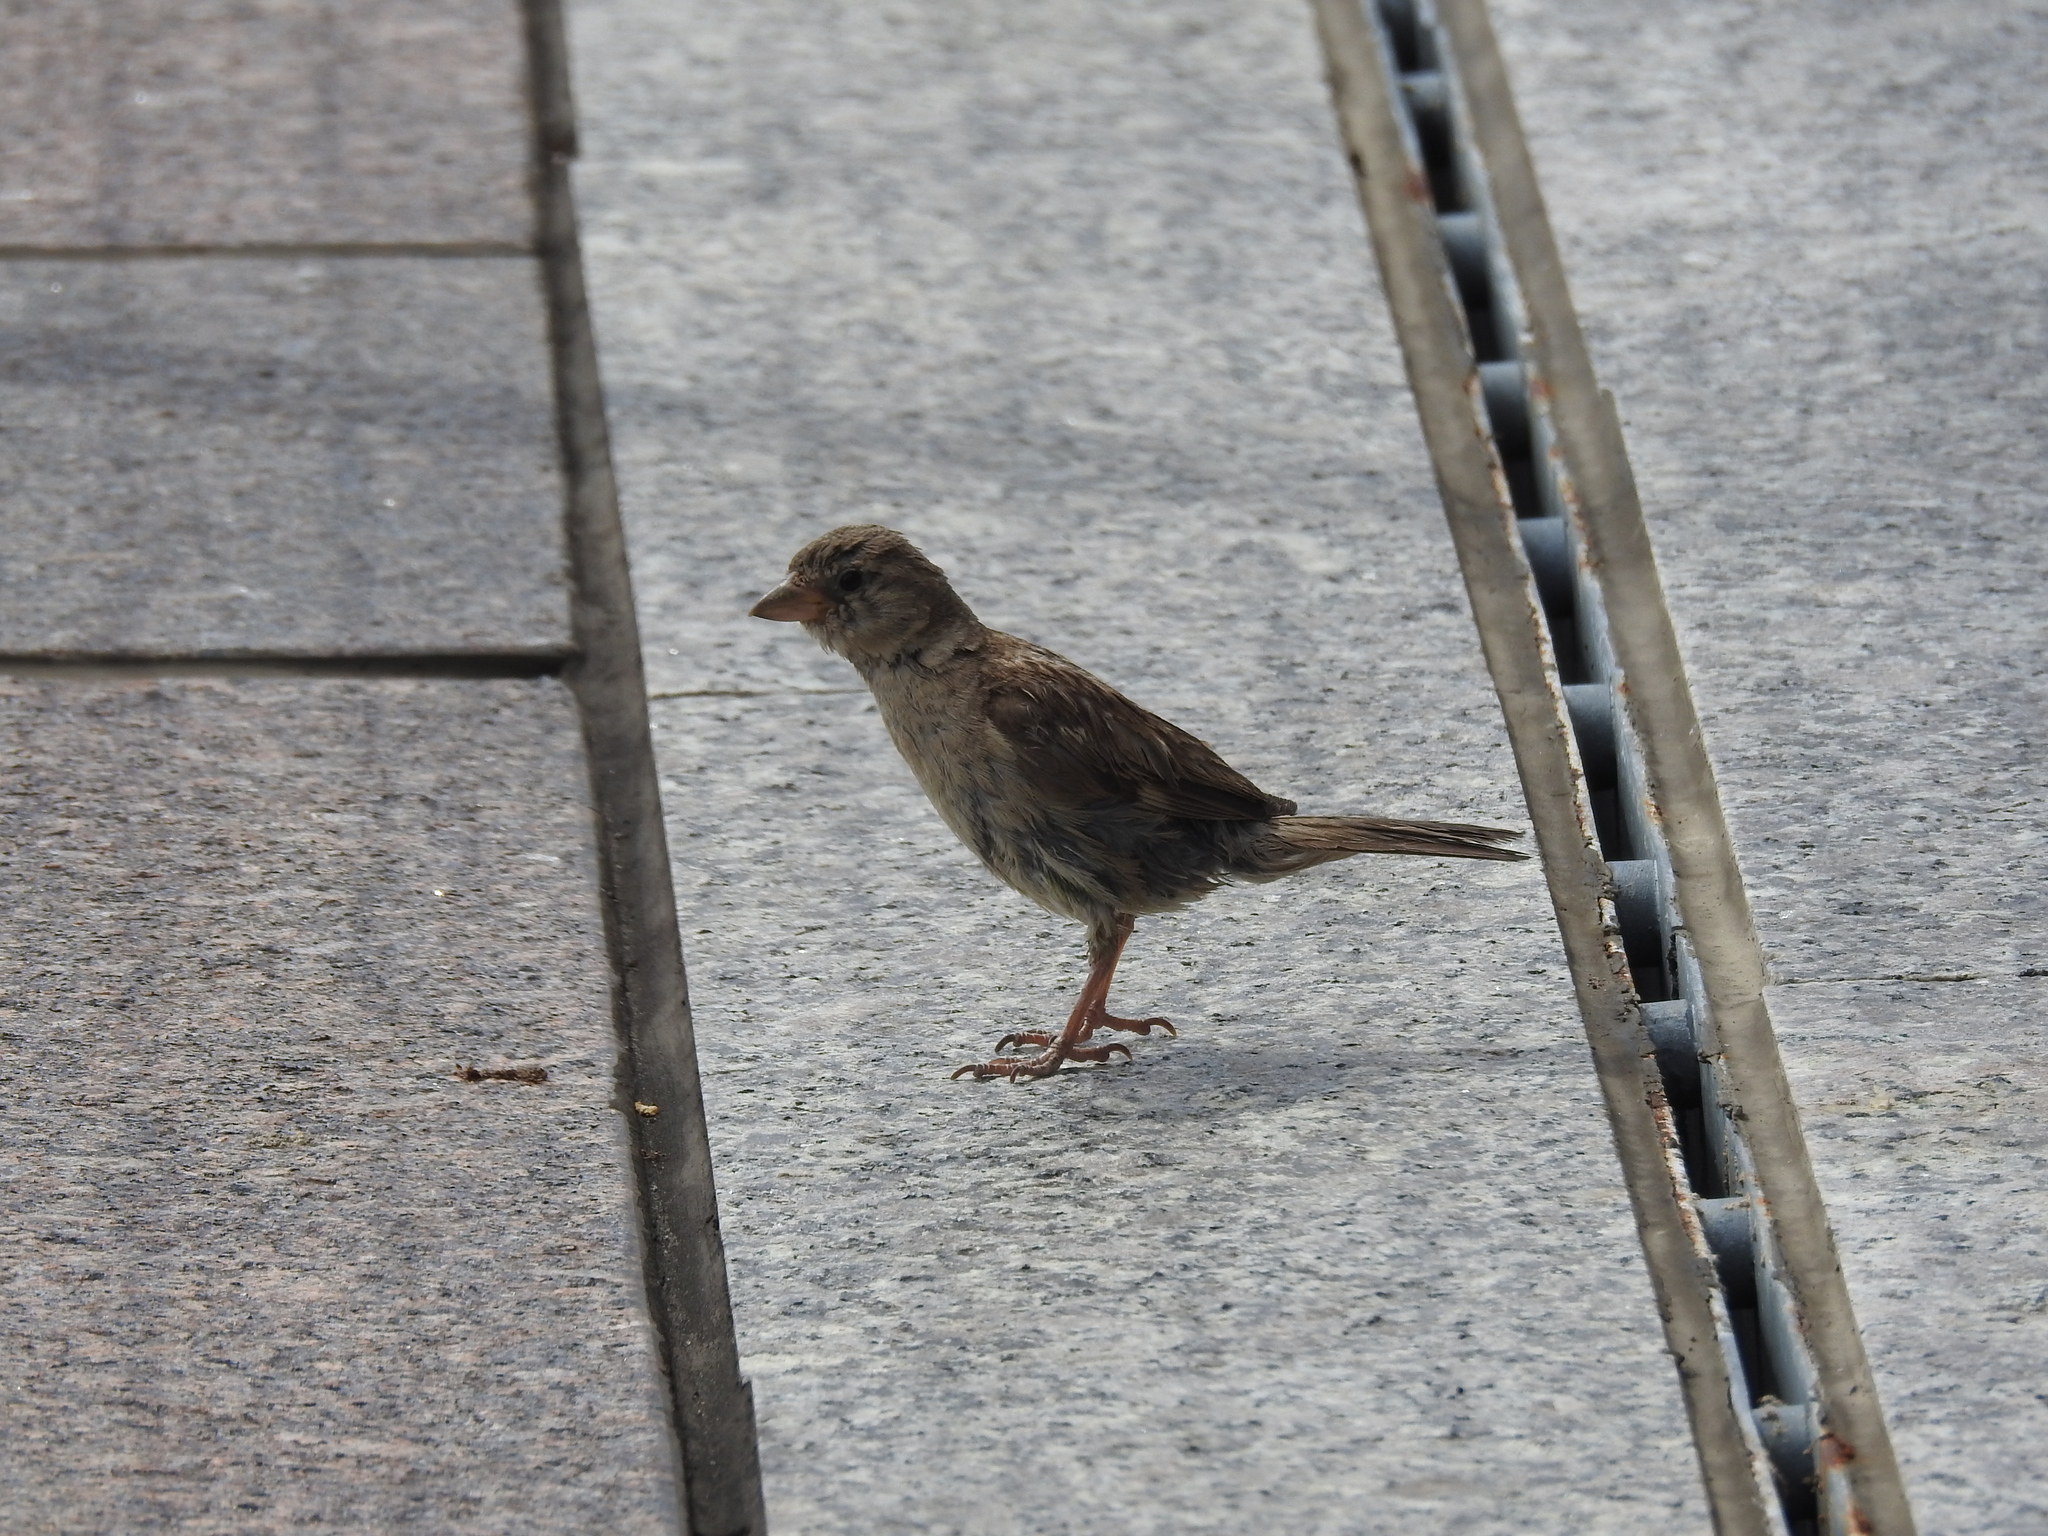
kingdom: Animalia
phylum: Chordata
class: Aves
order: Passeriformes
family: Passeridae
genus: Passer
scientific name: Passer domesticus
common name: House sparrow
